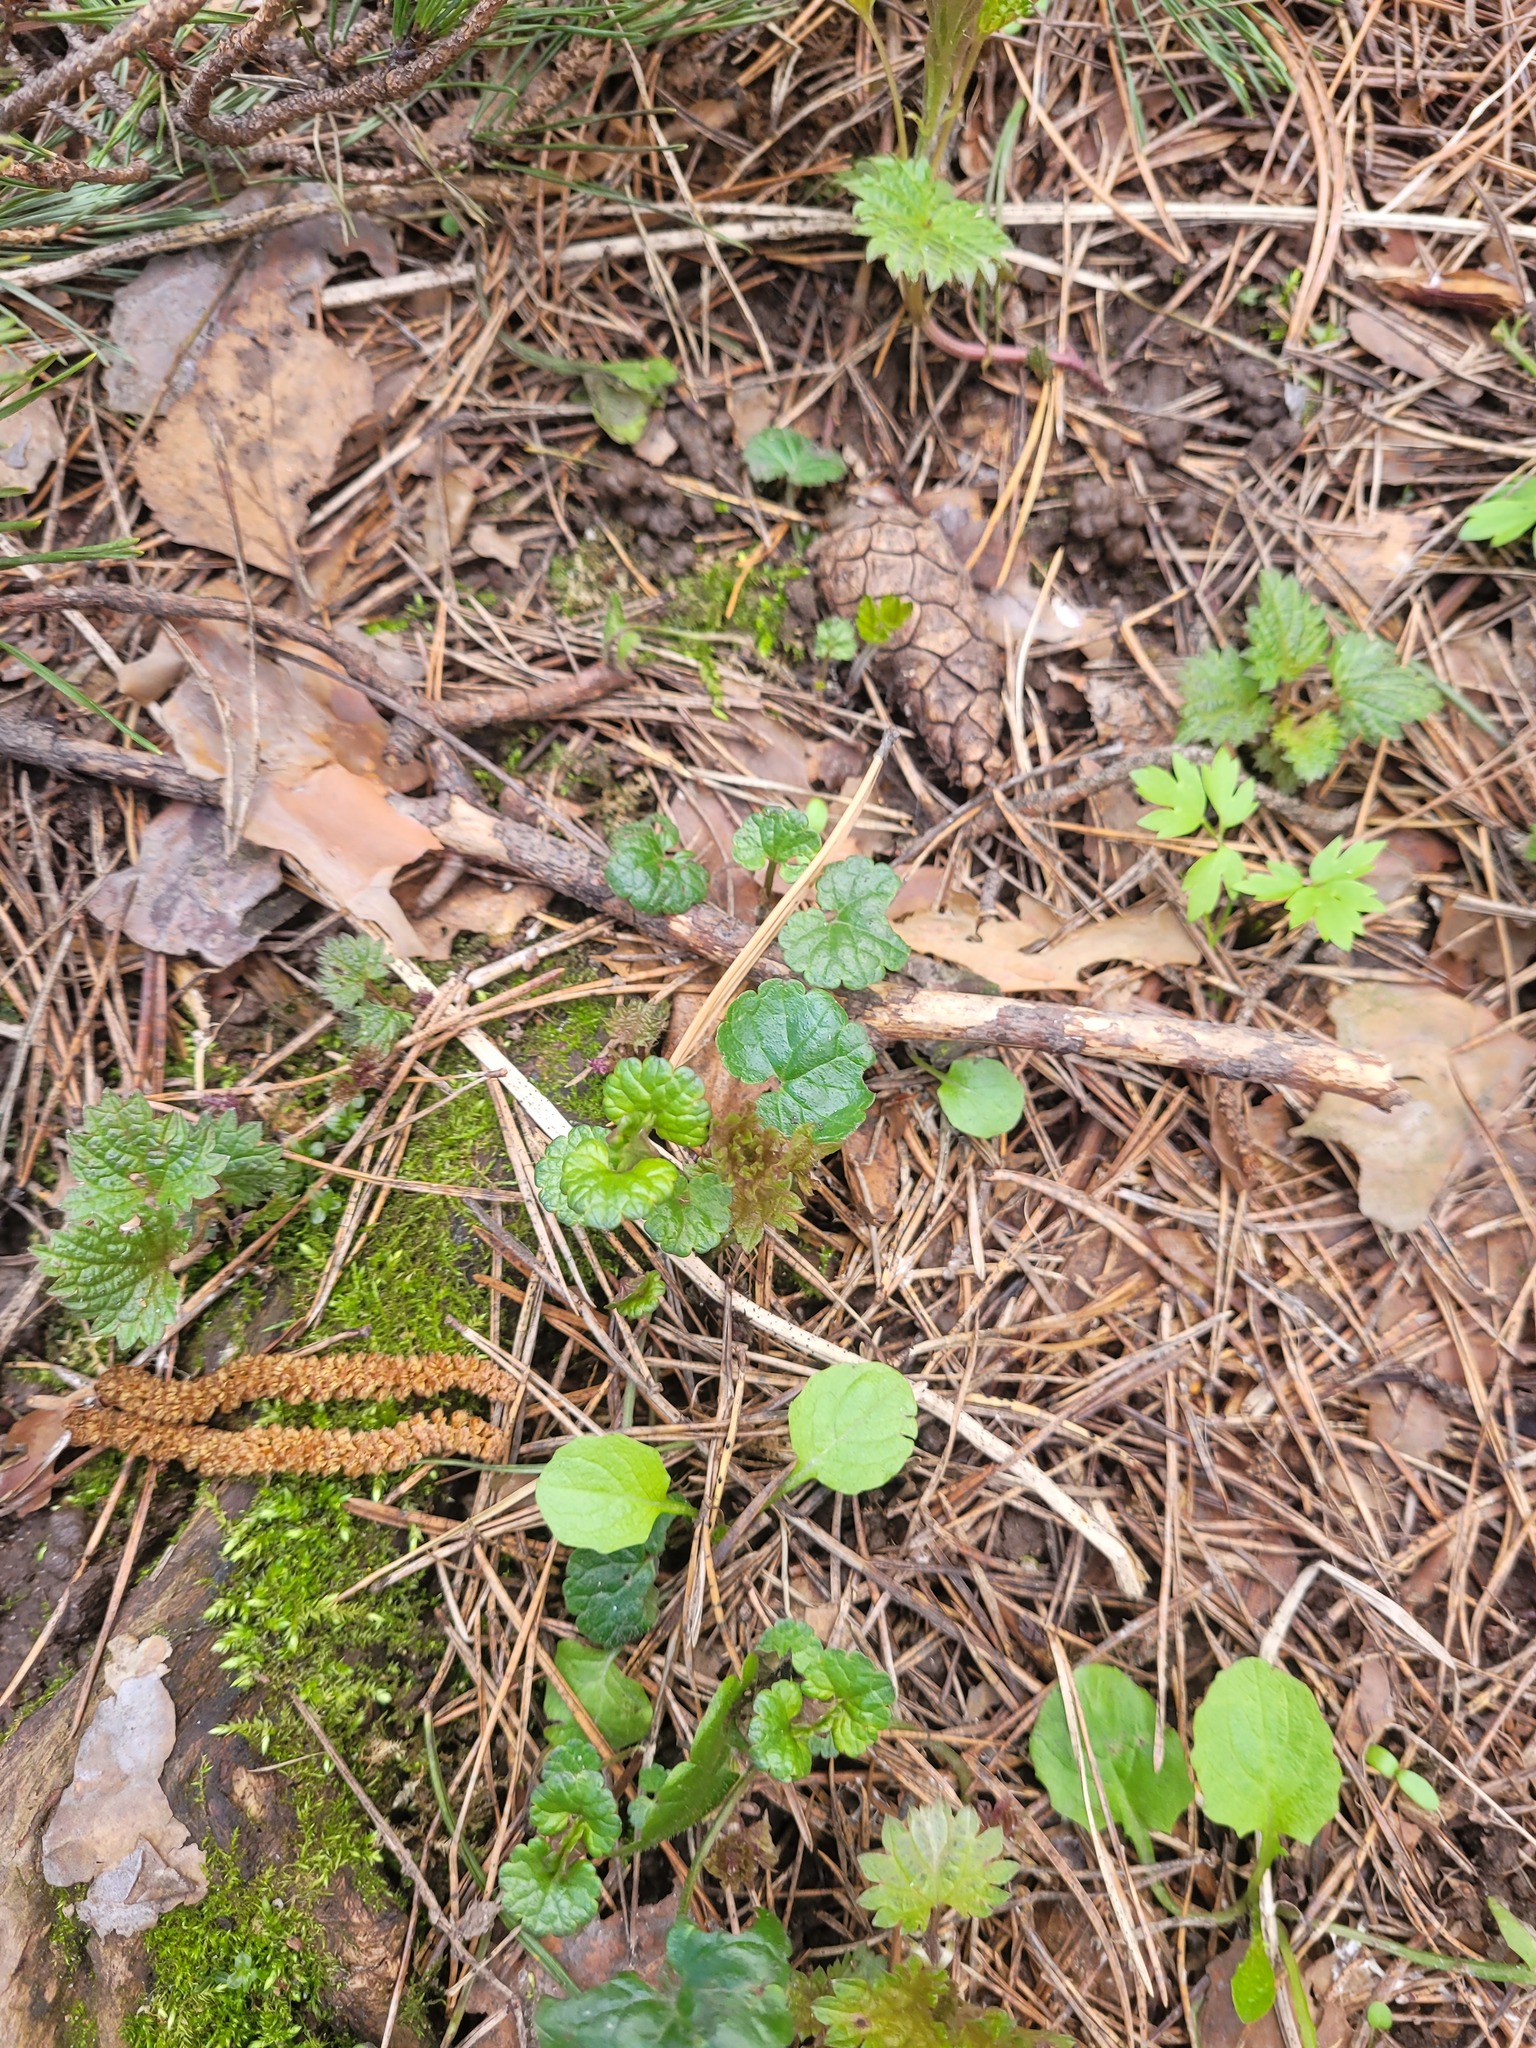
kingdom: Plantae
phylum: Tracheophyta
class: Magnoliopsida
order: Lamiales
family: Lamiaceae
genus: Glechoma
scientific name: Glechoma hederacea
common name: Ground ivy
